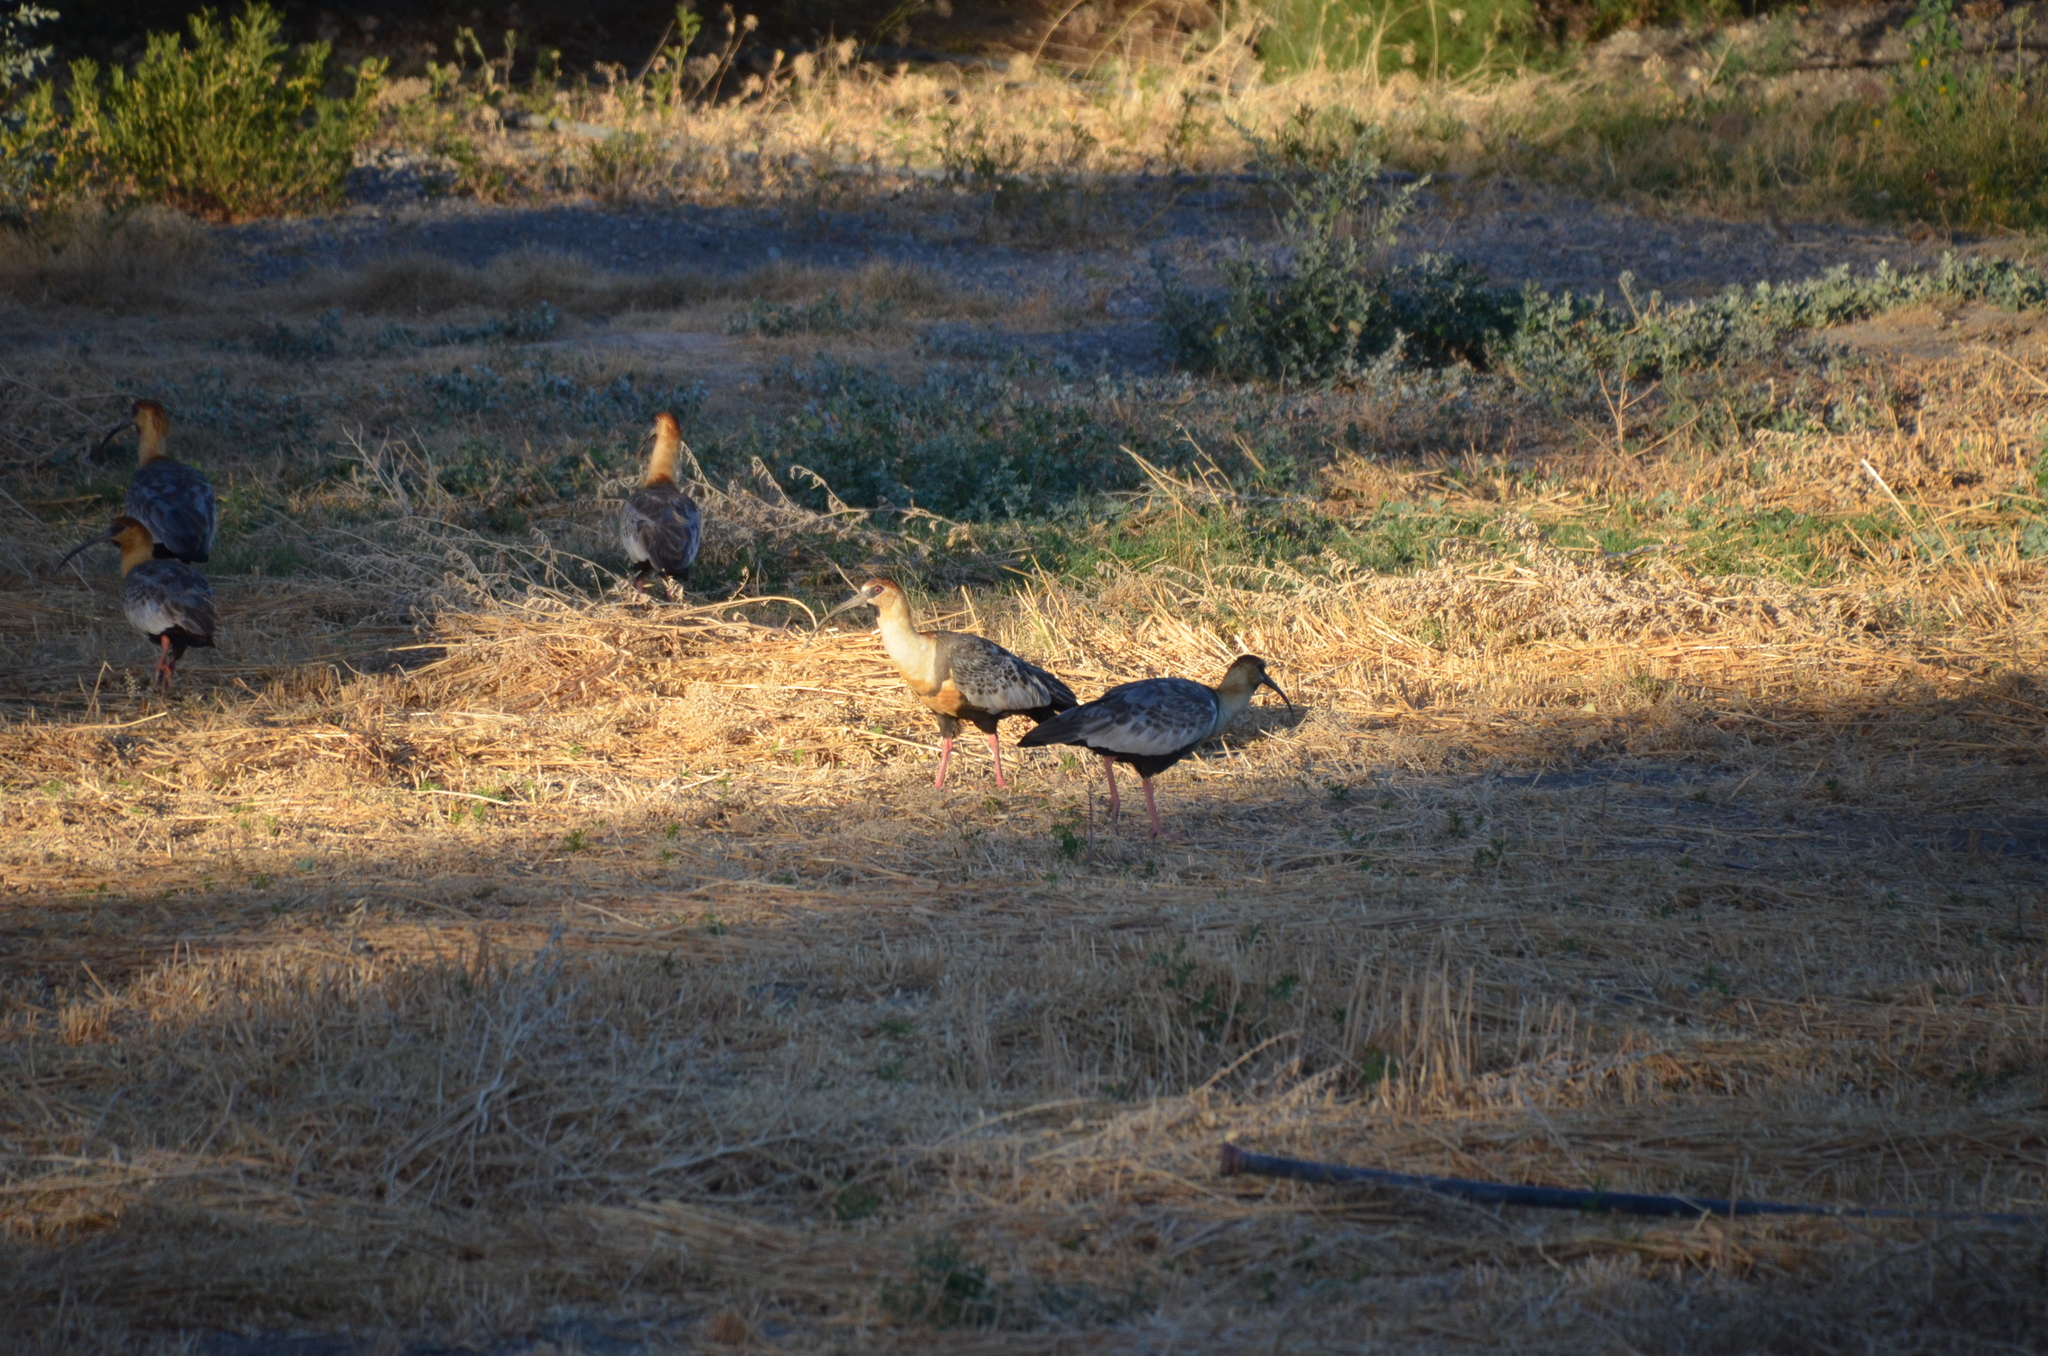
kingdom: Animalia
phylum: Chordata
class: Aves
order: Pelecaniformes
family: Threskiornithidae
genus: Theristicus
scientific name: Theristicus melanopis
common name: Black-faced ibis
